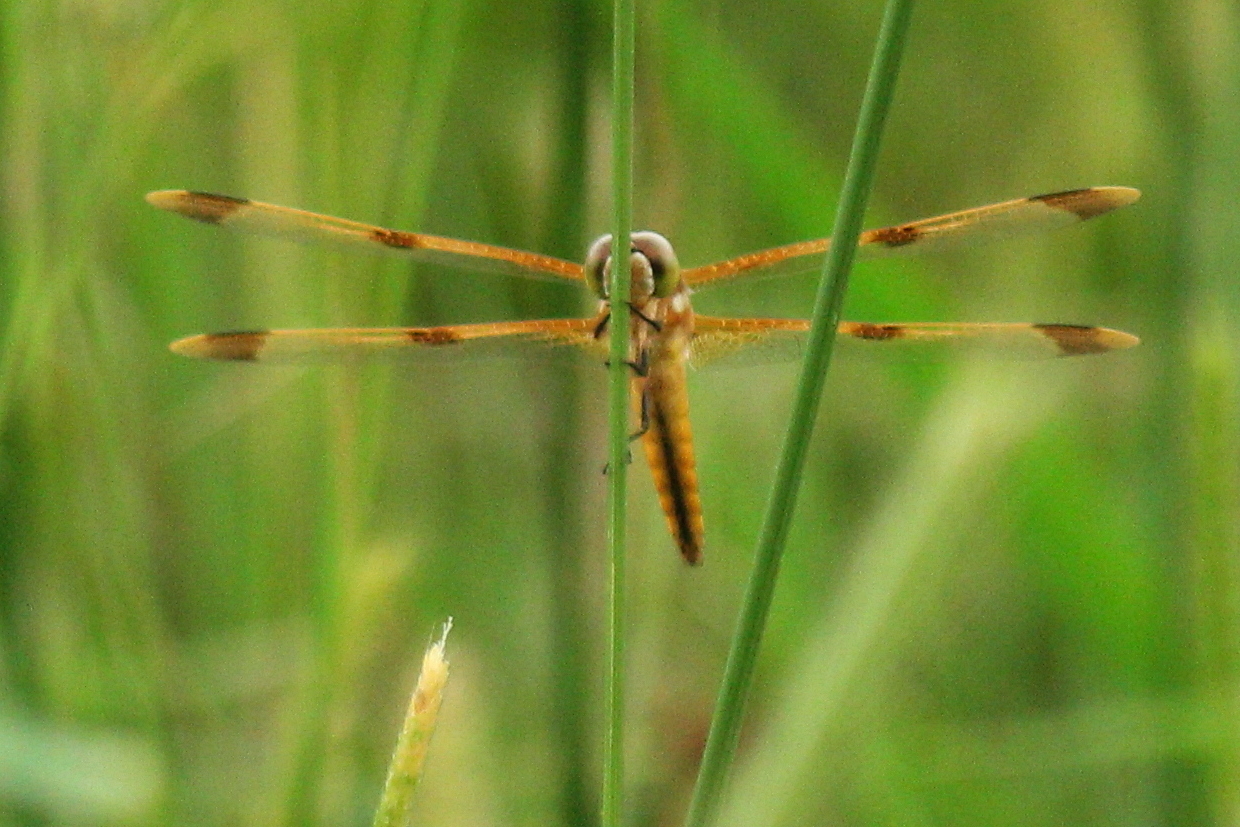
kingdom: Animalia
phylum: Arthropoda
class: Insecta
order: Odonata
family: Libellulidae
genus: Libellula
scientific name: Libellula semifasciata
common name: Painted skimmer
